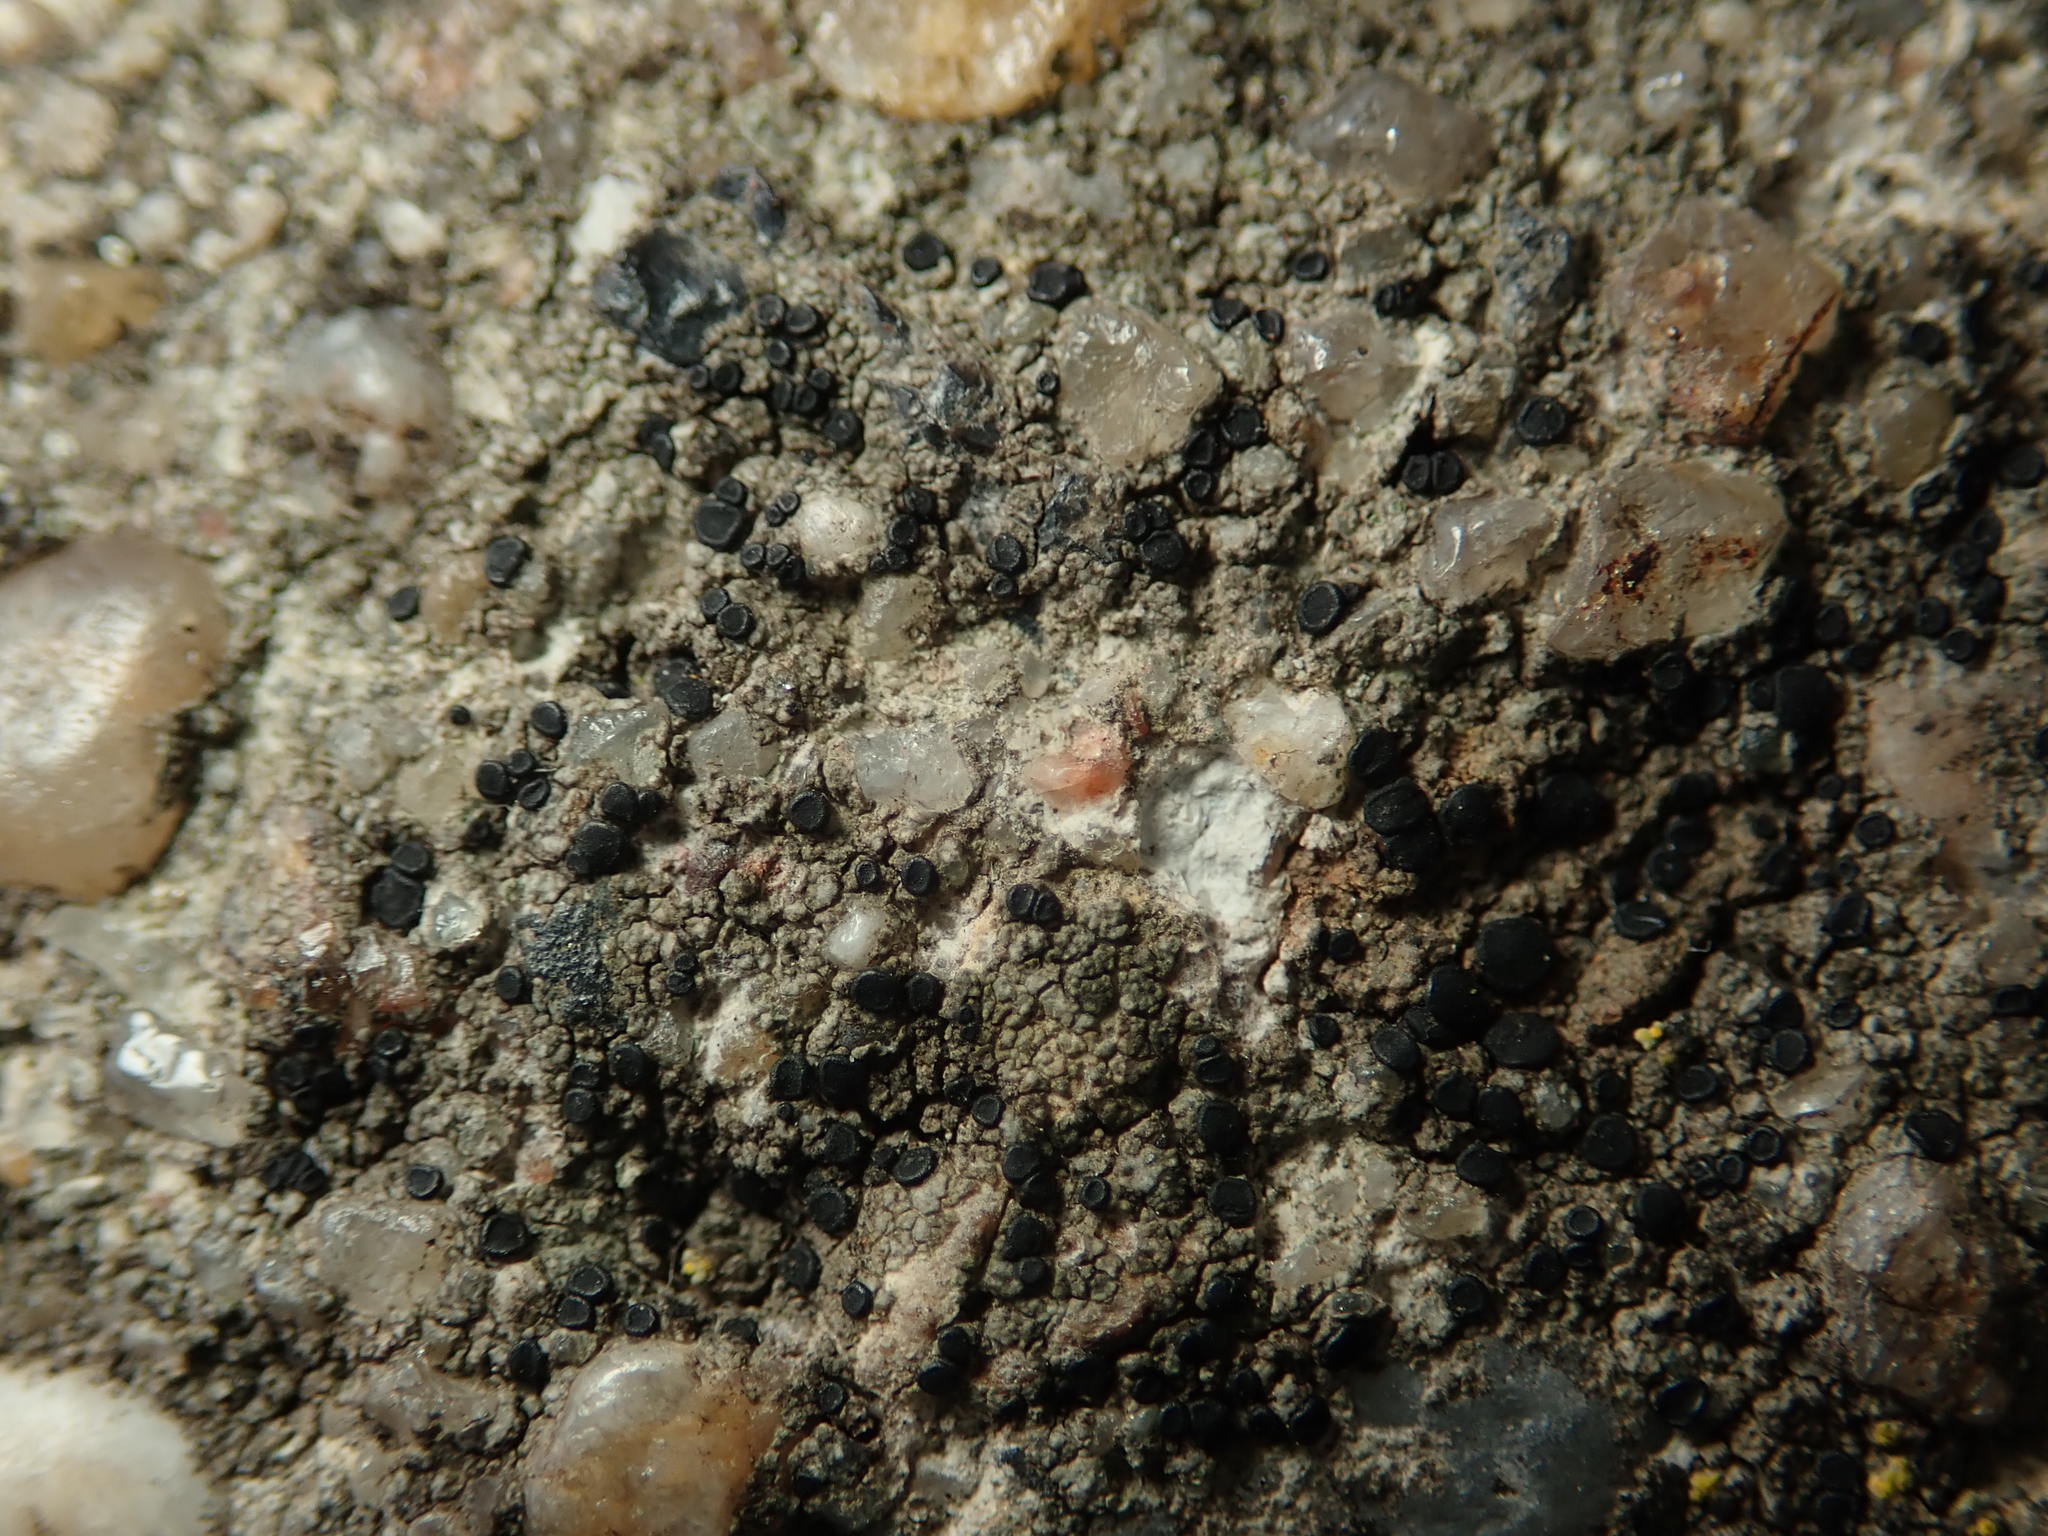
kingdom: Fungi
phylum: Ascomycota
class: Lecanoromycetes
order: Lecanorales
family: Lecanoraceae
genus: Lecidella
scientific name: Lecidella stigmatea
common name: Limestone disc lichen
